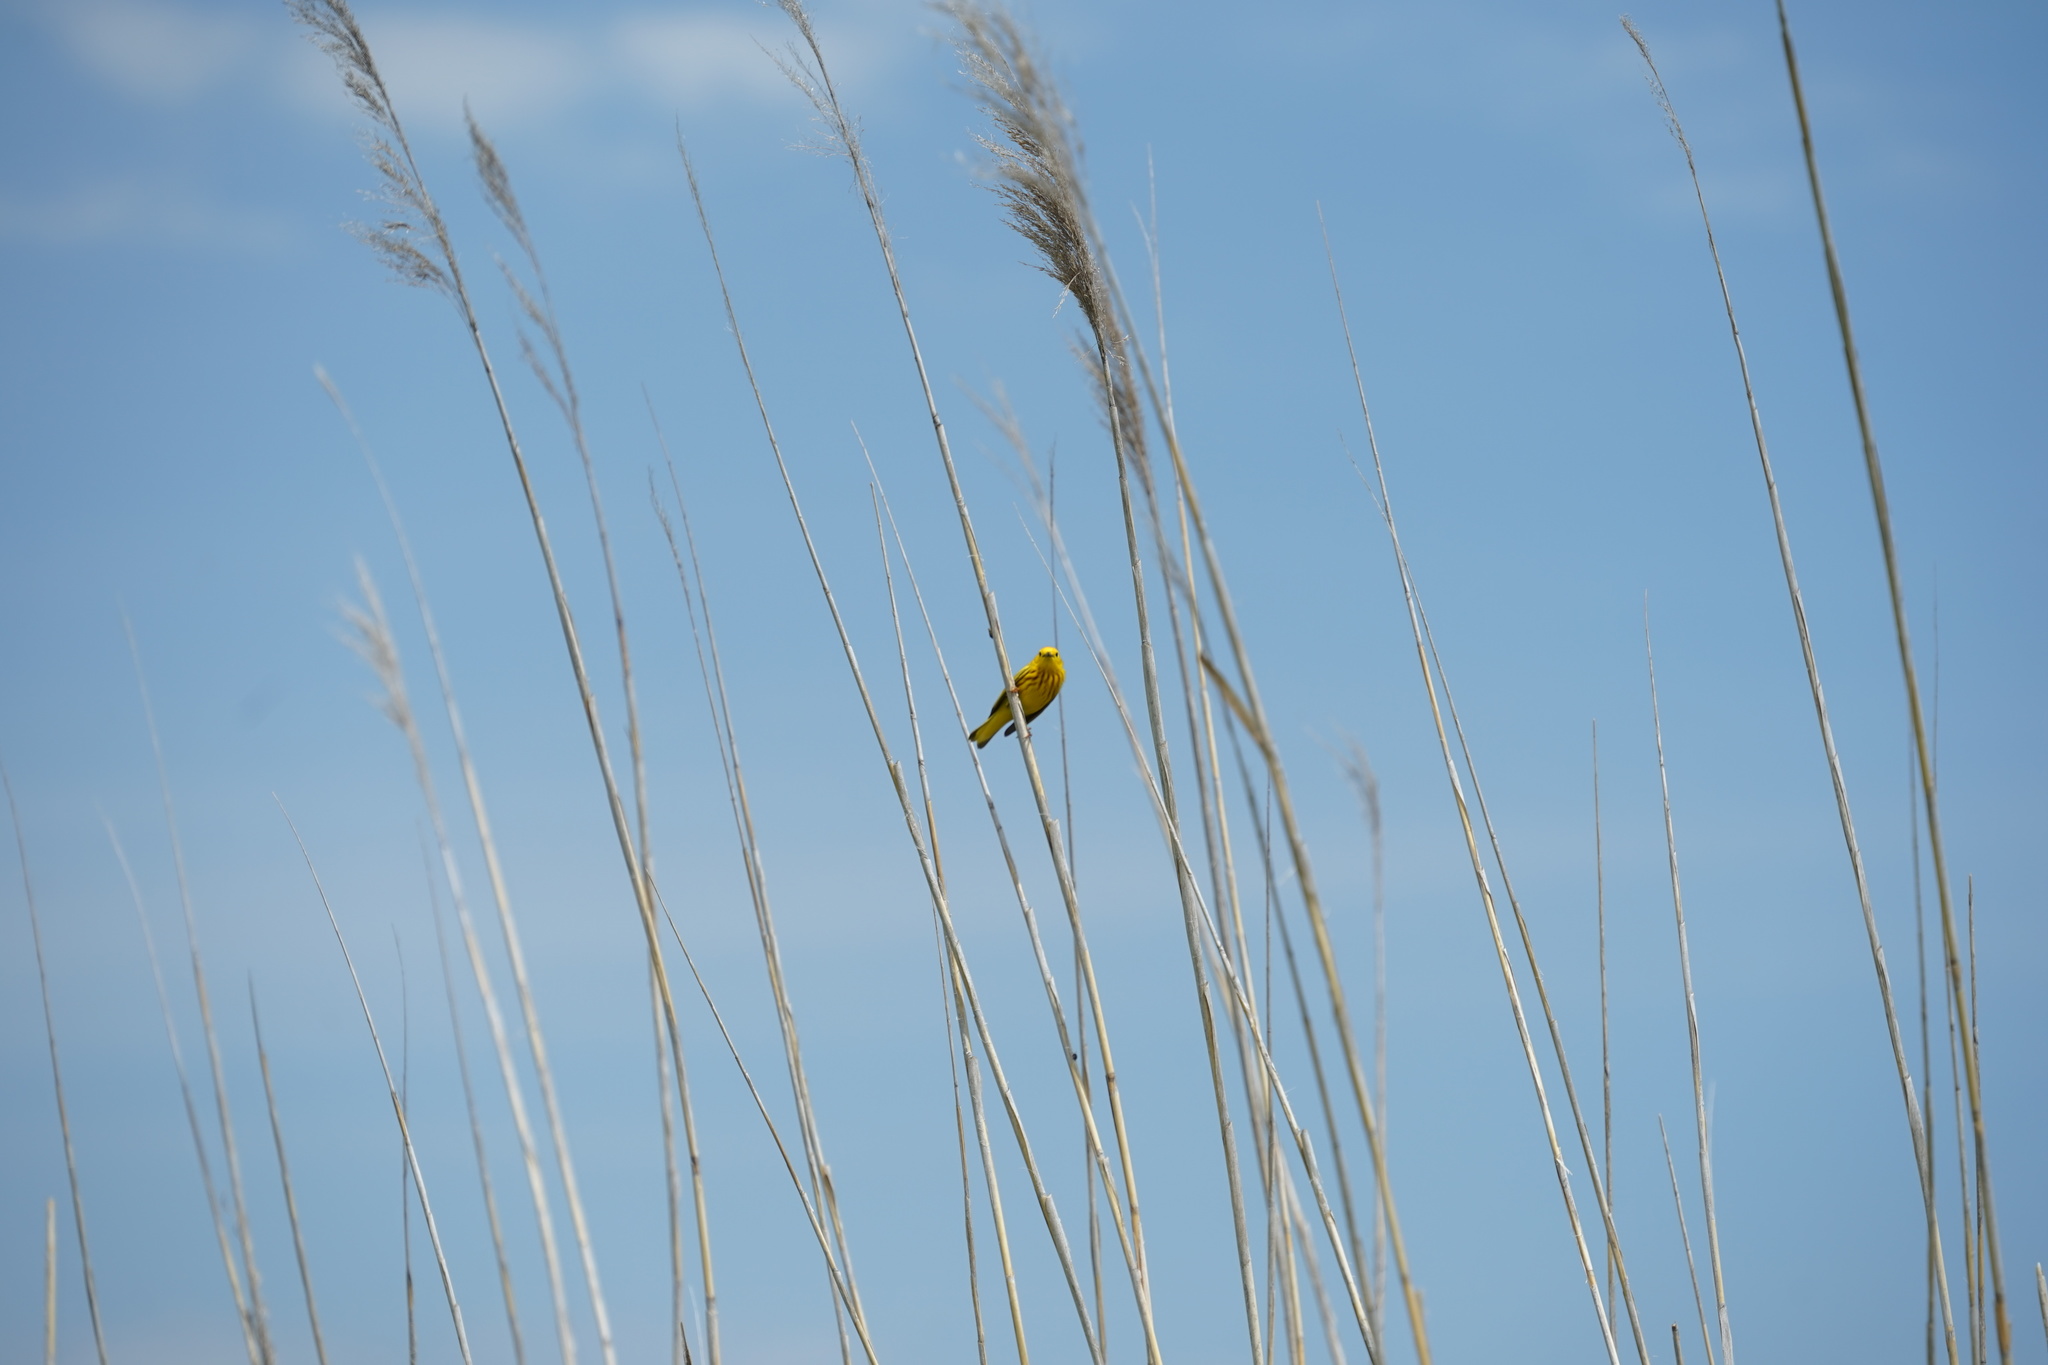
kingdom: Animalia
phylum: Chordata
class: Aves
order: Passeriformes
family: Parulidae
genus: Setophaga
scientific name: Setophaga petechia
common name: Yellow warbler
